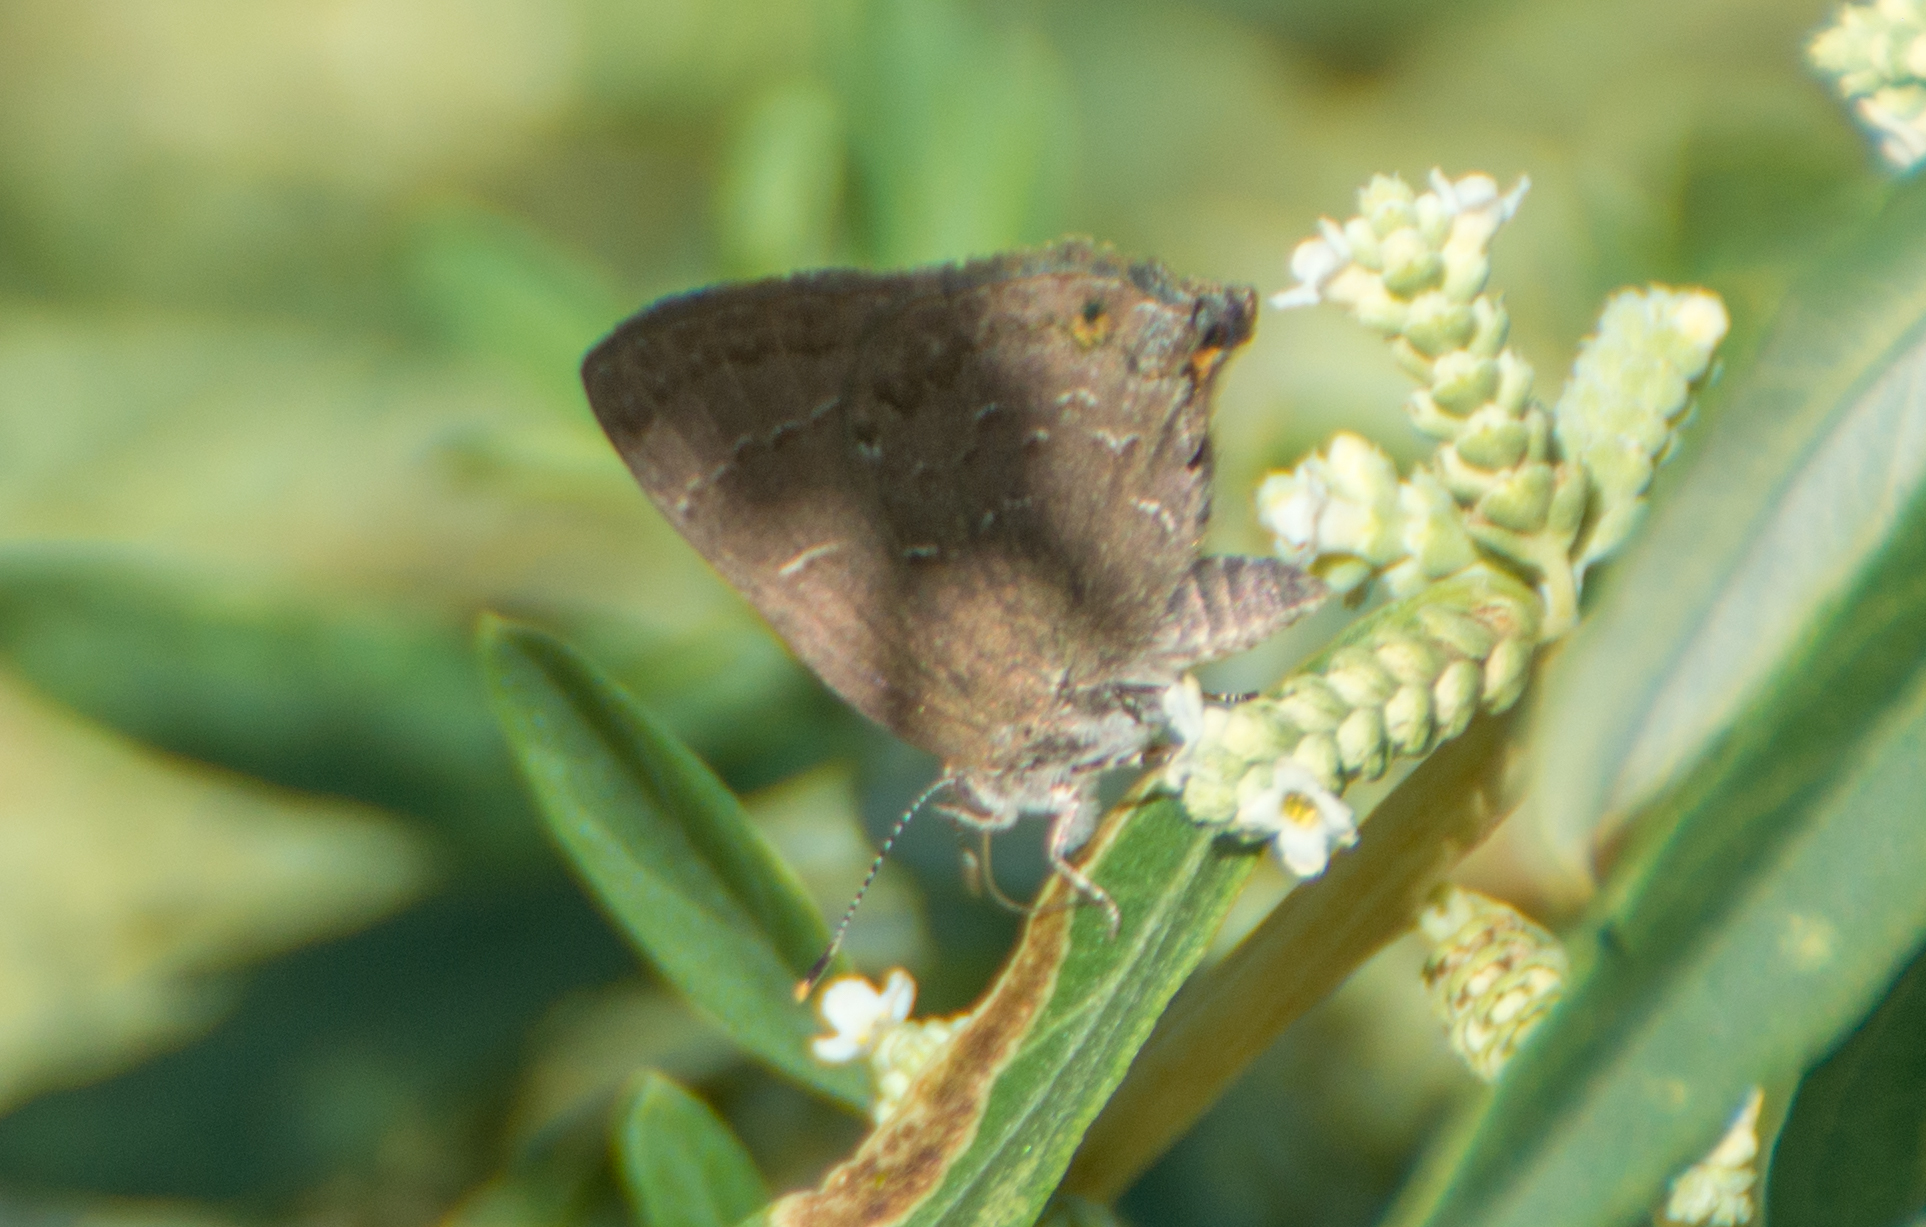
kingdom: Animalia
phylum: Arthropoda
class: Insecta
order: Lepidoptera
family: Lycaenidae
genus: Ocaria
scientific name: Ocaria
